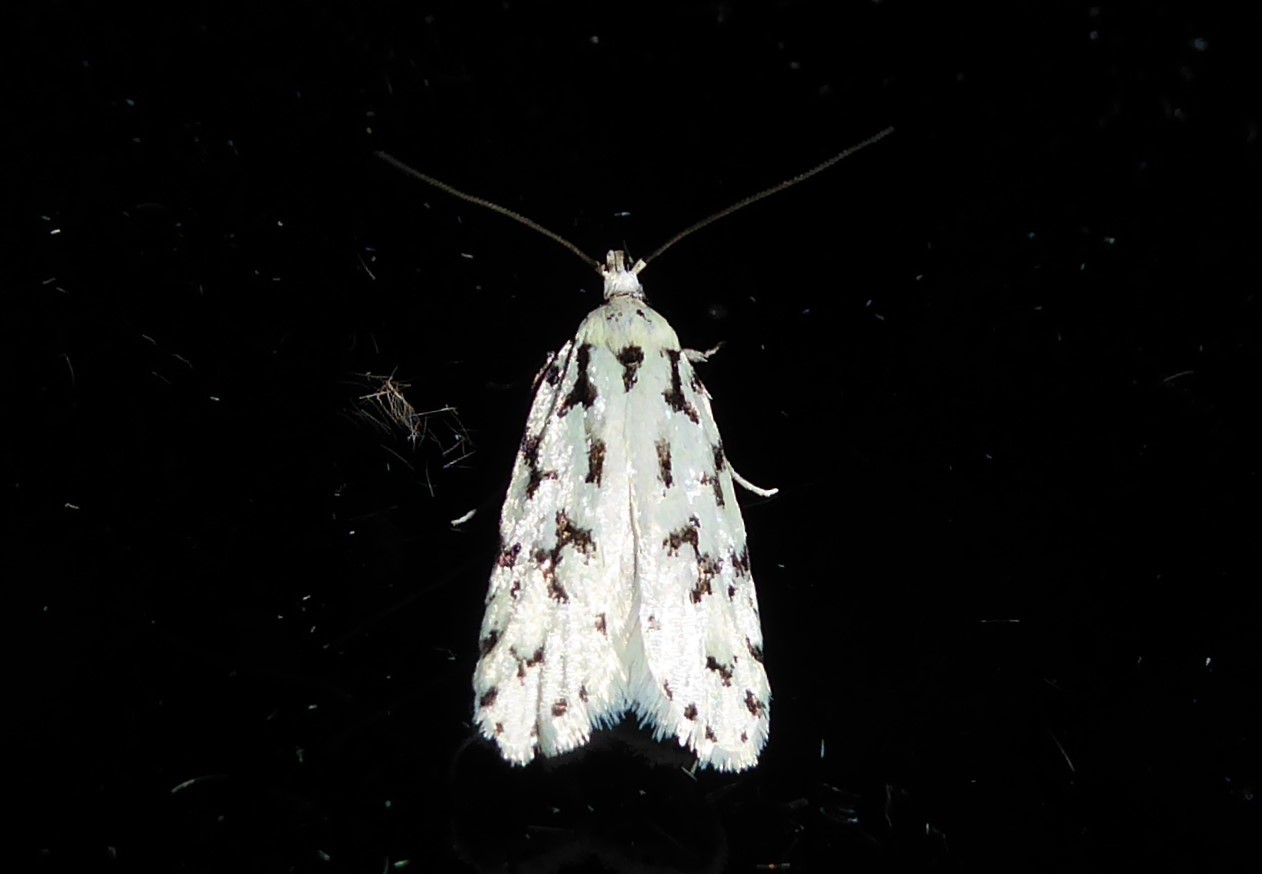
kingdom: Animalia
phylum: Arthropoda
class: Insecta
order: Lepidoptera
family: Oecophoridae
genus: Izatha
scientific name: Izatha huttoni
